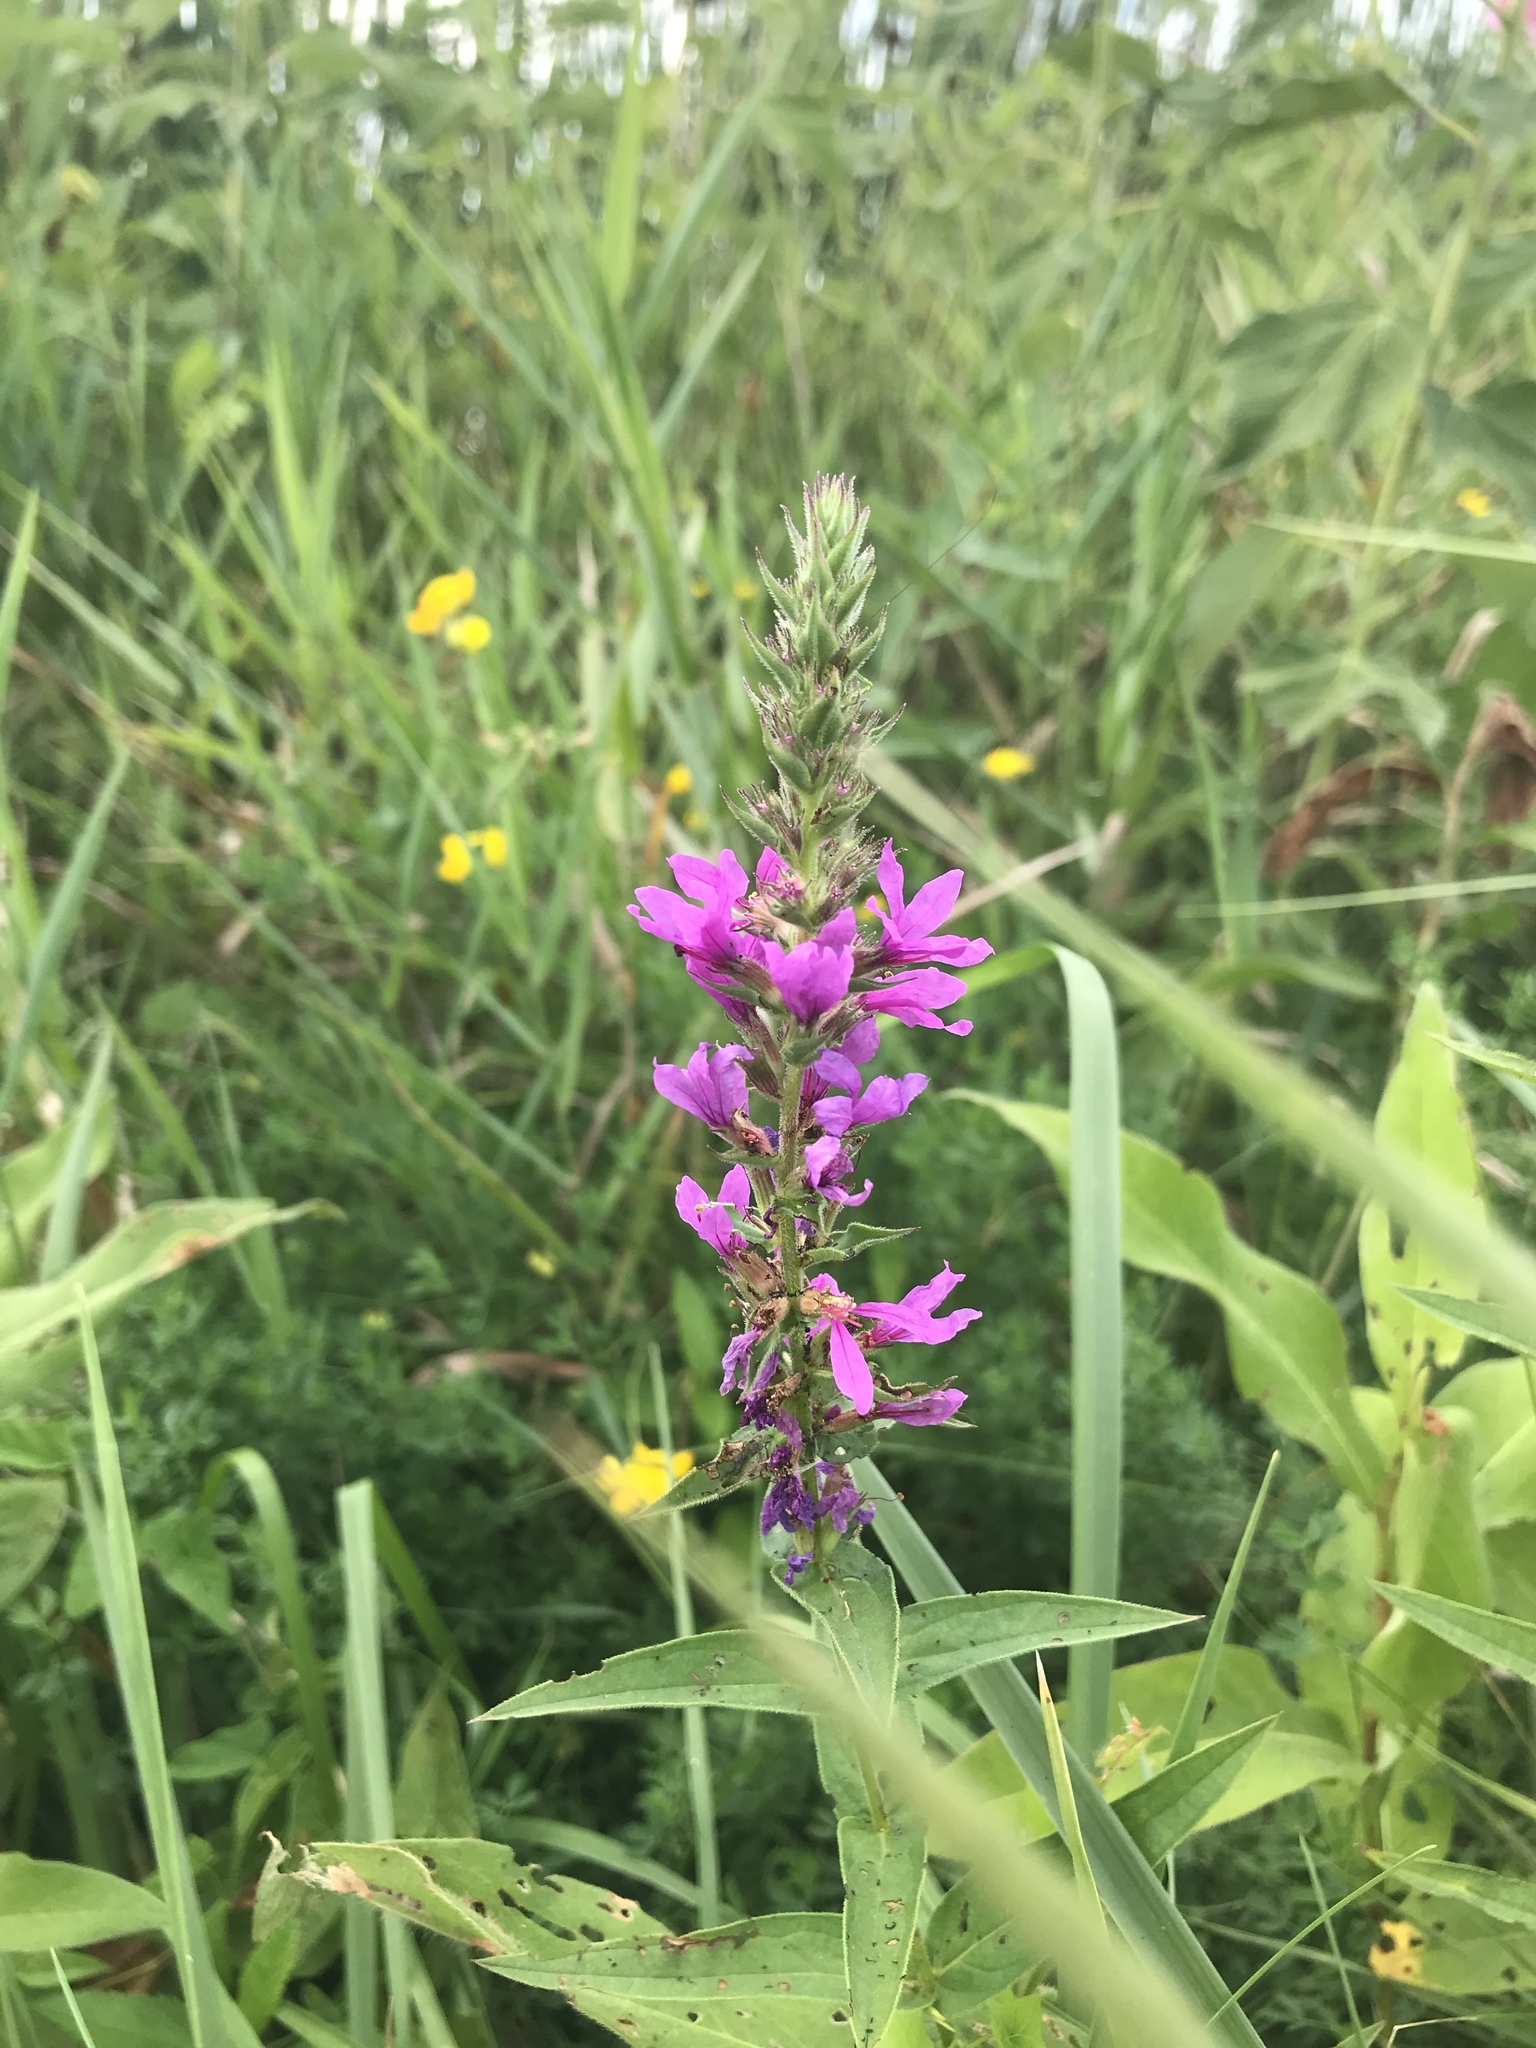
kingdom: Plantae
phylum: Tracheophyta
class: Magnoliopsida
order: Myrtales
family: Lythraceae
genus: Lythrum
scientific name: Lythrum salicaria
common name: Purple loosestrife
